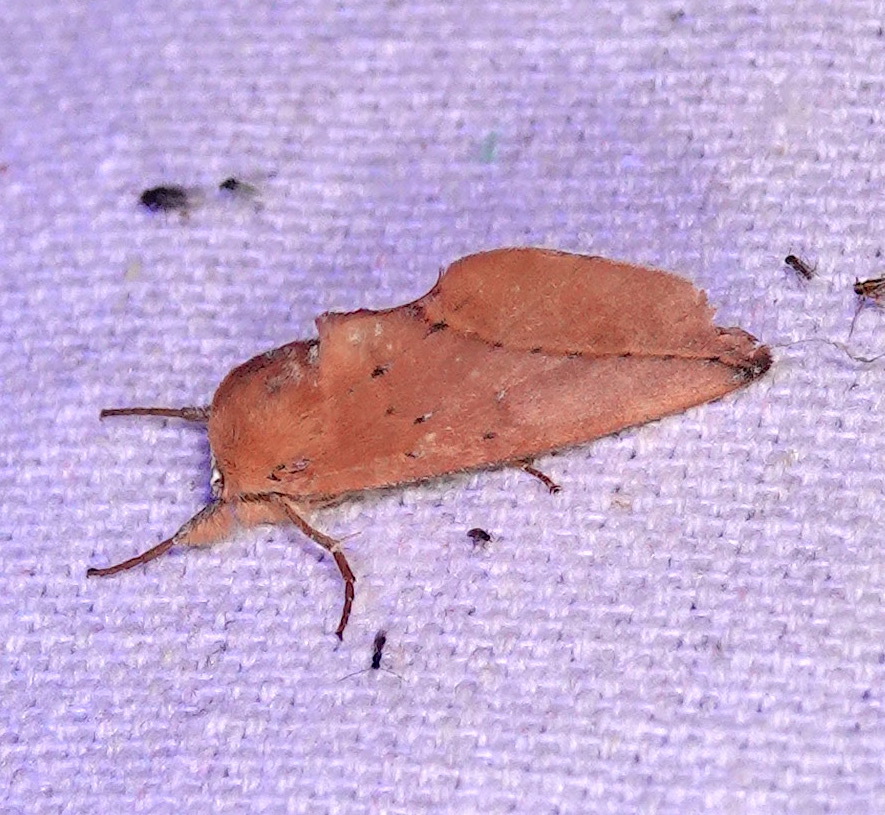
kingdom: Animalia
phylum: Arthropoda
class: Insecta
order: Lepidoptera
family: Notodontidae
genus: Hemiceras
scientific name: Hemiceras
